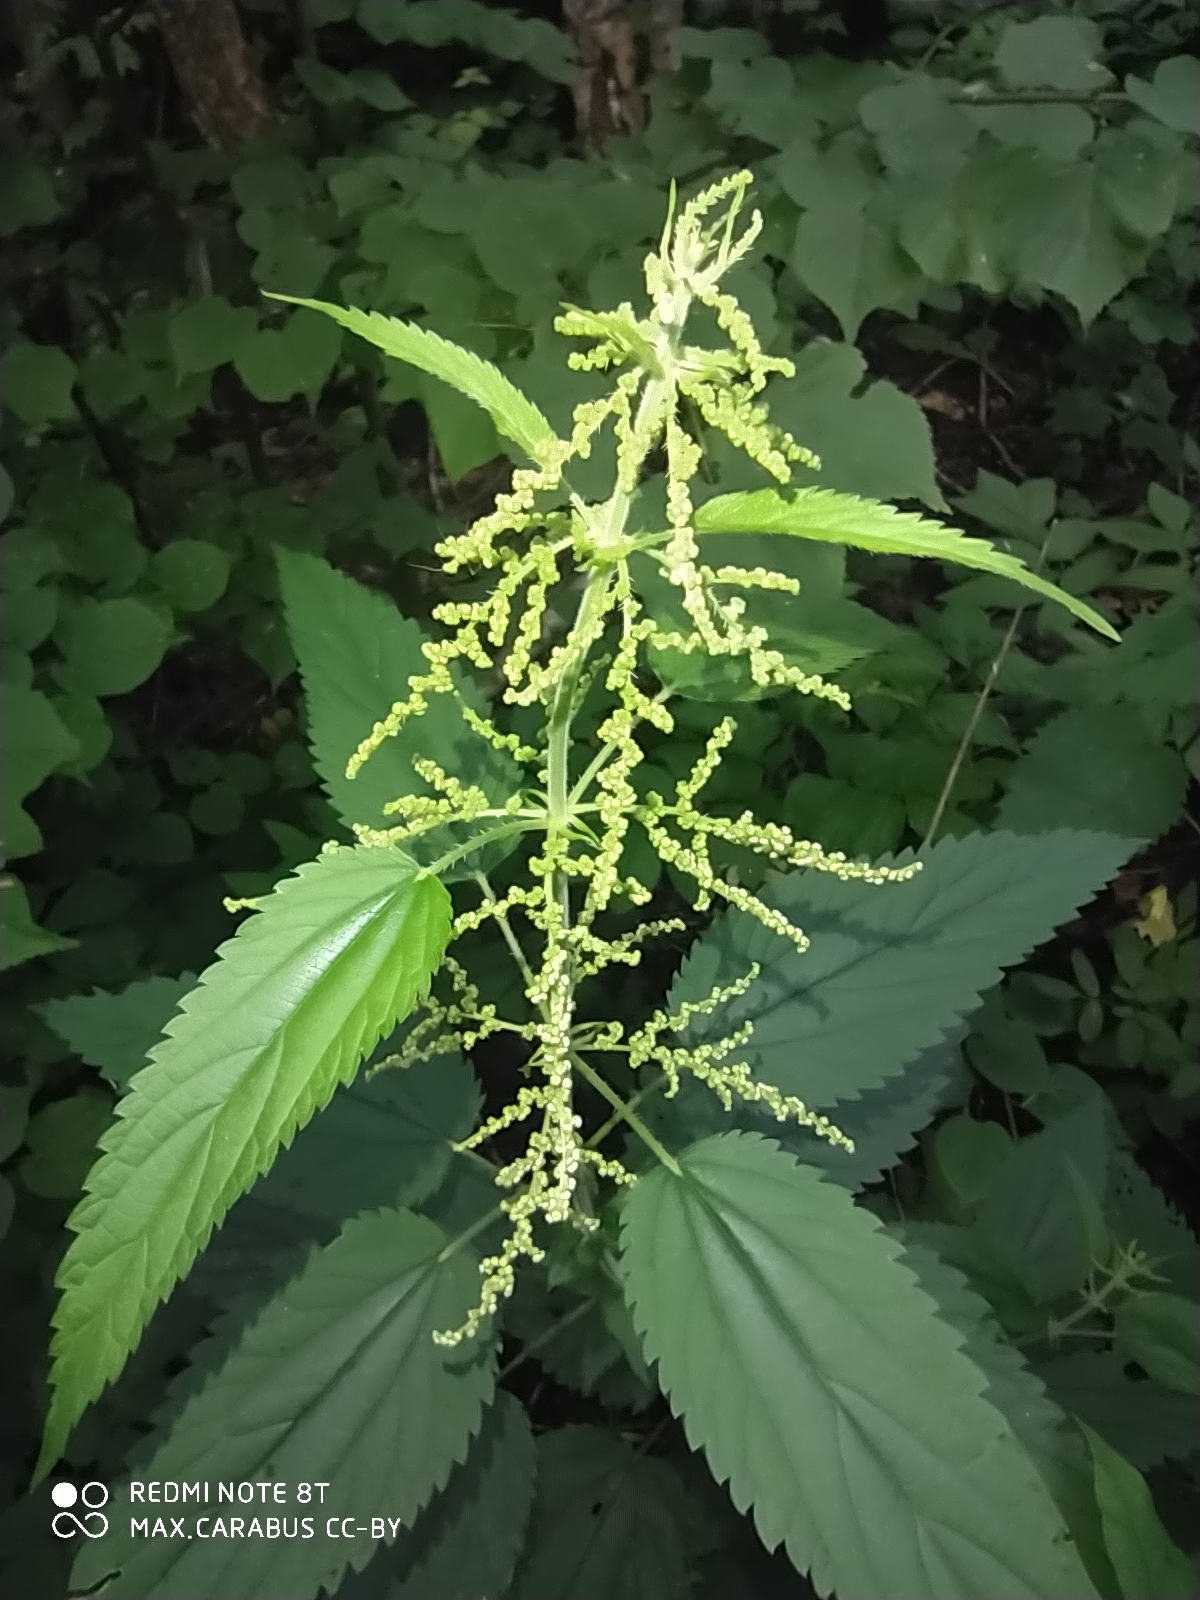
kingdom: Plantae
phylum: Tracheophyta
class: Magnoliopsida
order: Rosales
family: Urticaceae
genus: Urtica
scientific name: Urtica dioica
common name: Common nettle
